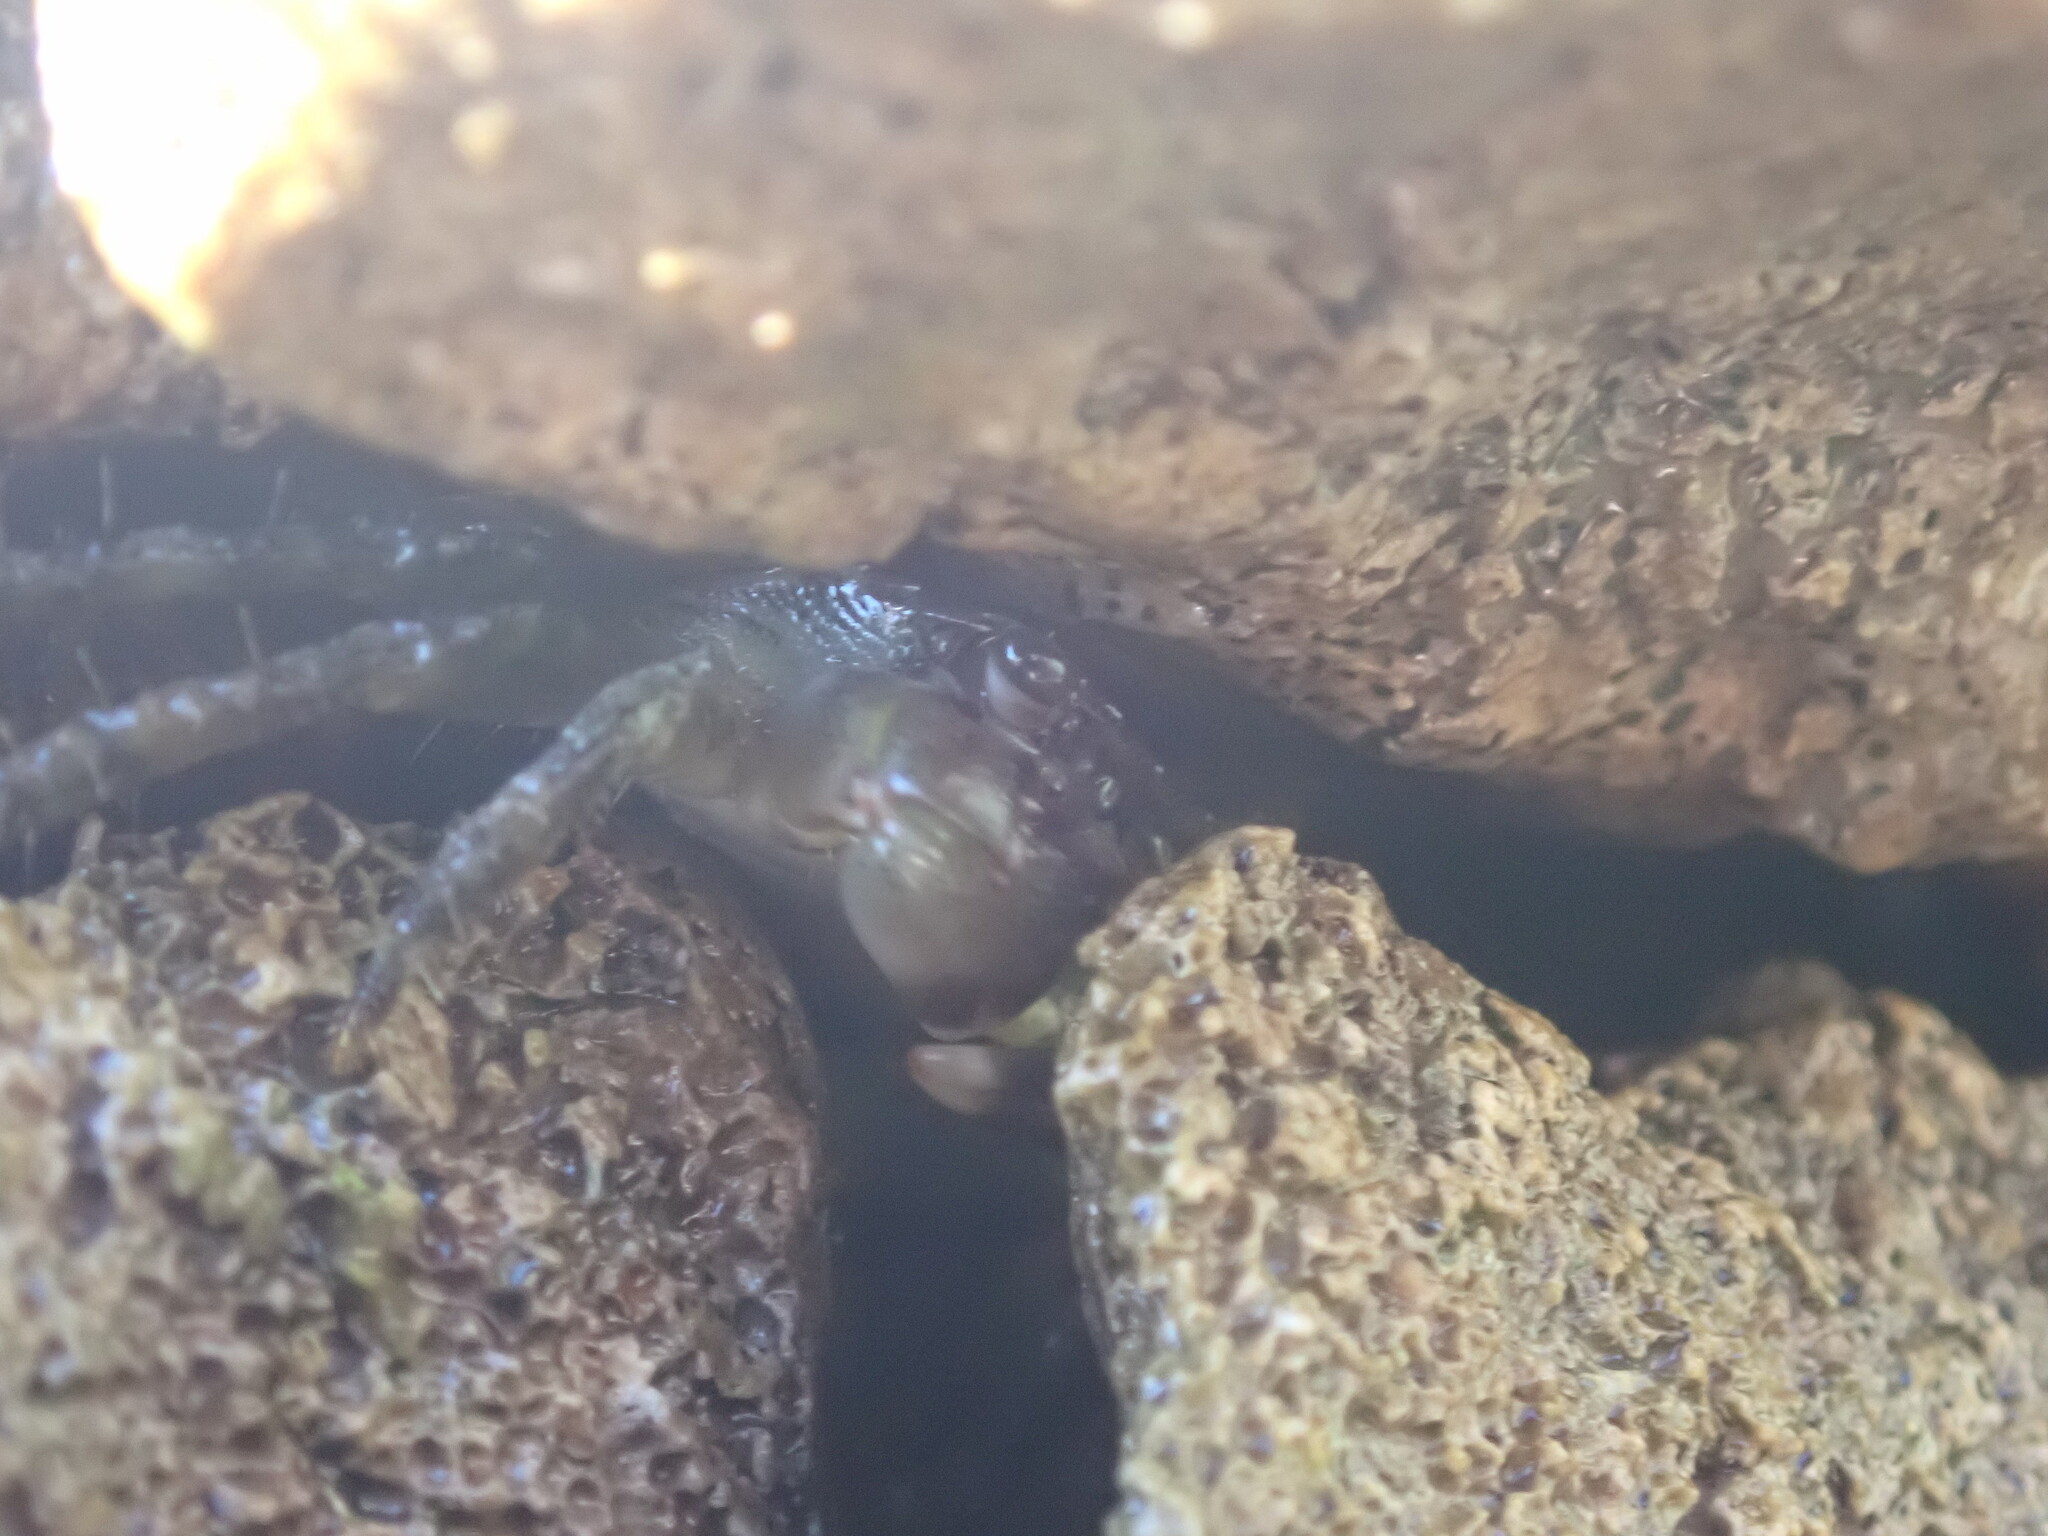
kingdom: Animalia
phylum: Arthropoda
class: Malacostraca
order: Decapoda
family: Grapsidae
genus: Pachygrapsus
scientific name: Pachygrapsus marmoratus
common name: Marbled rock crab
